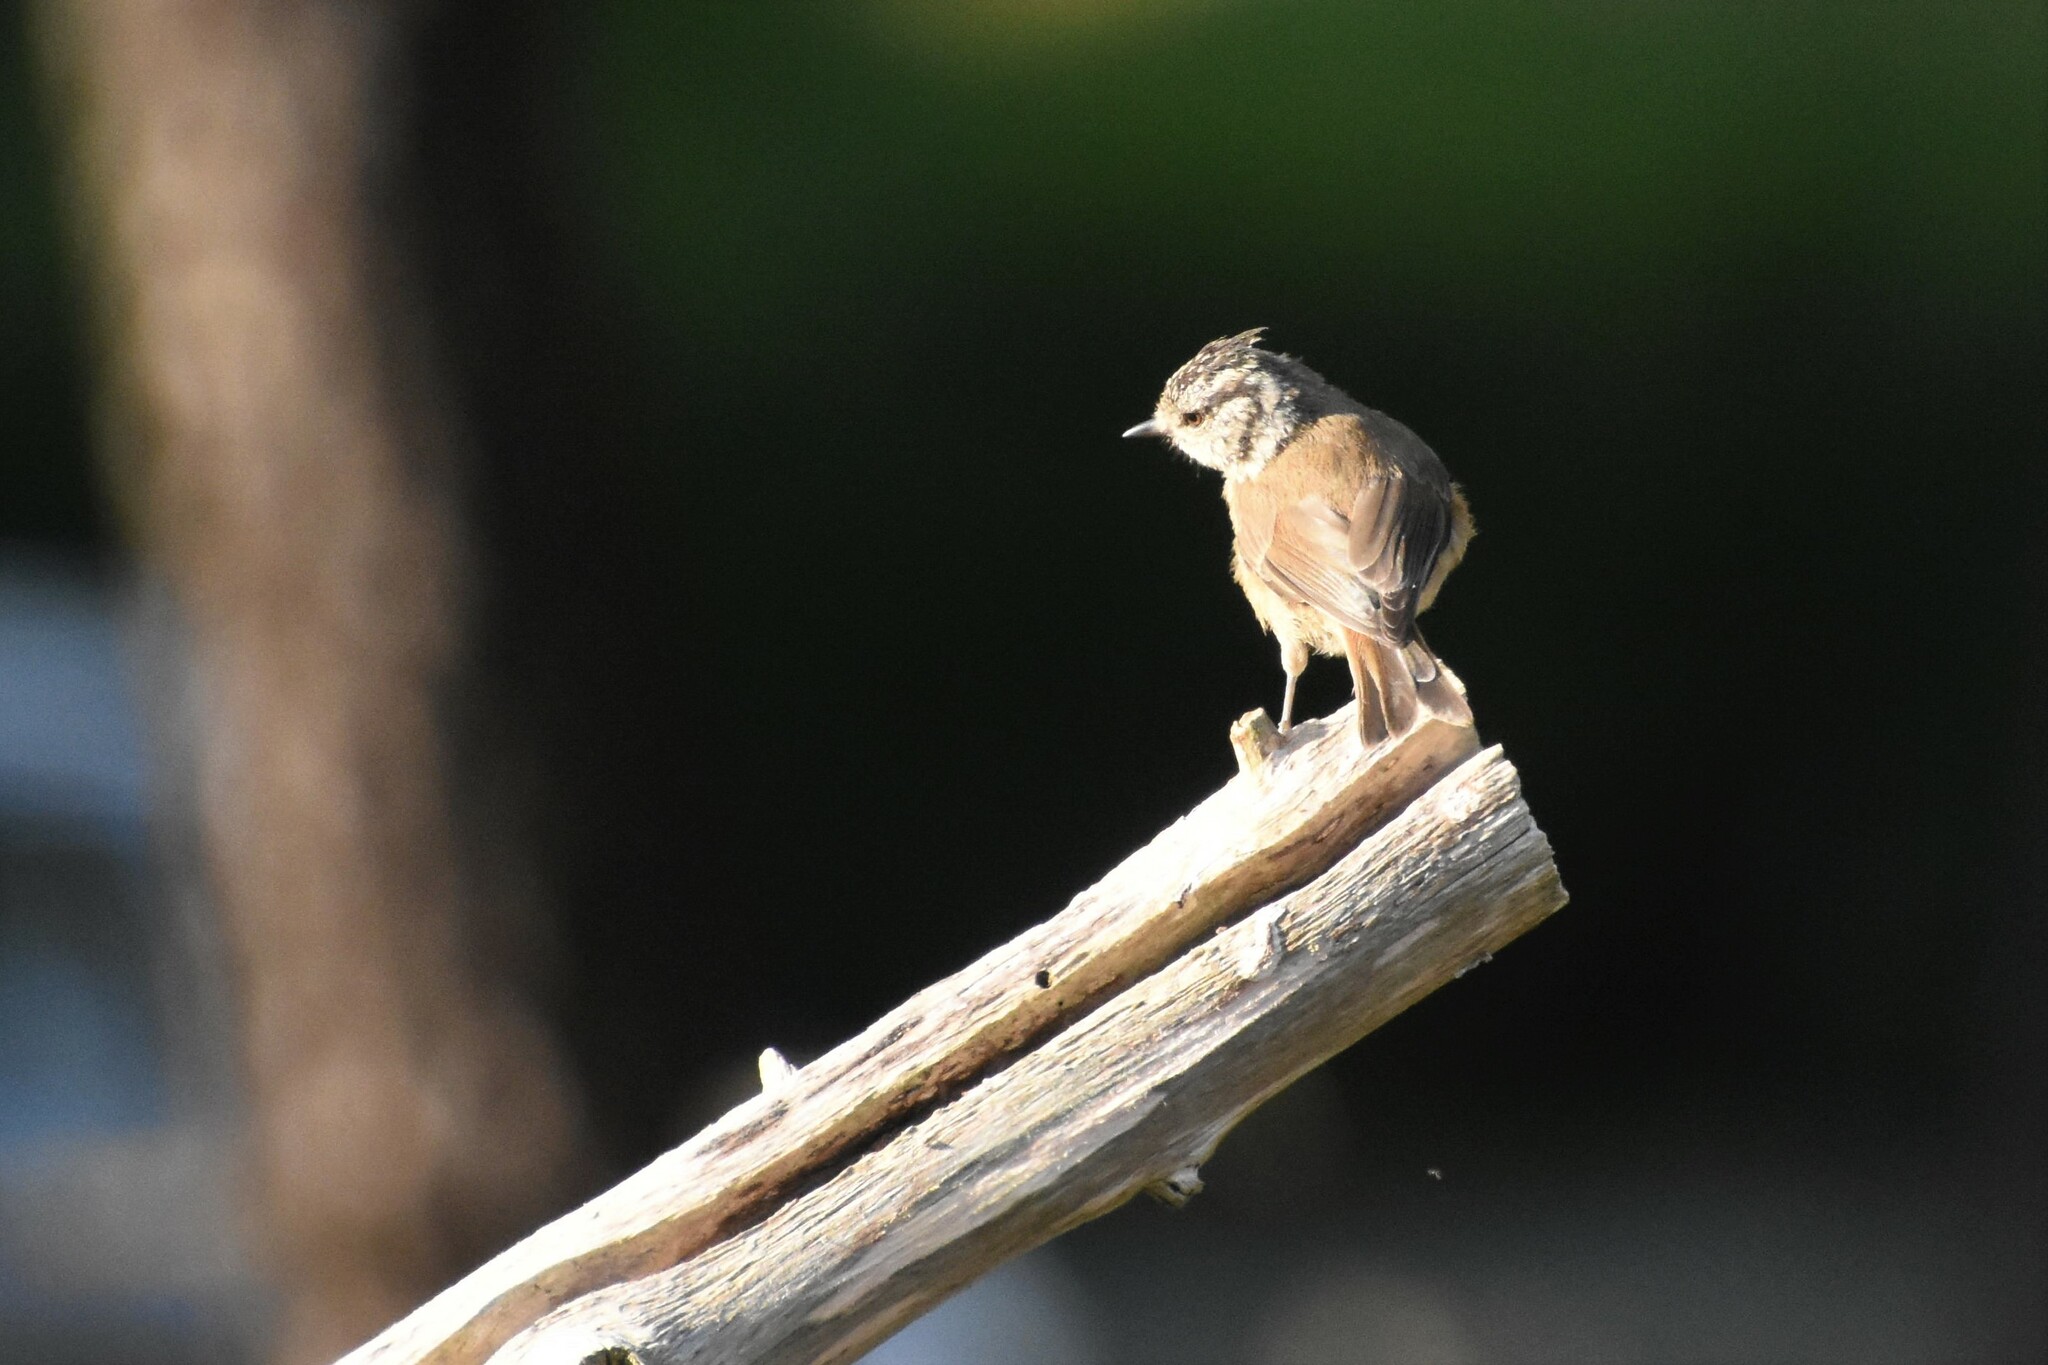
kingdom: Animalia
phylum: Chordata
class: Aves
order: Passeriformes
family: Paridae
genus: Lophophanes
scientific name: Lophophanes cristatus
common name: European crested tit
